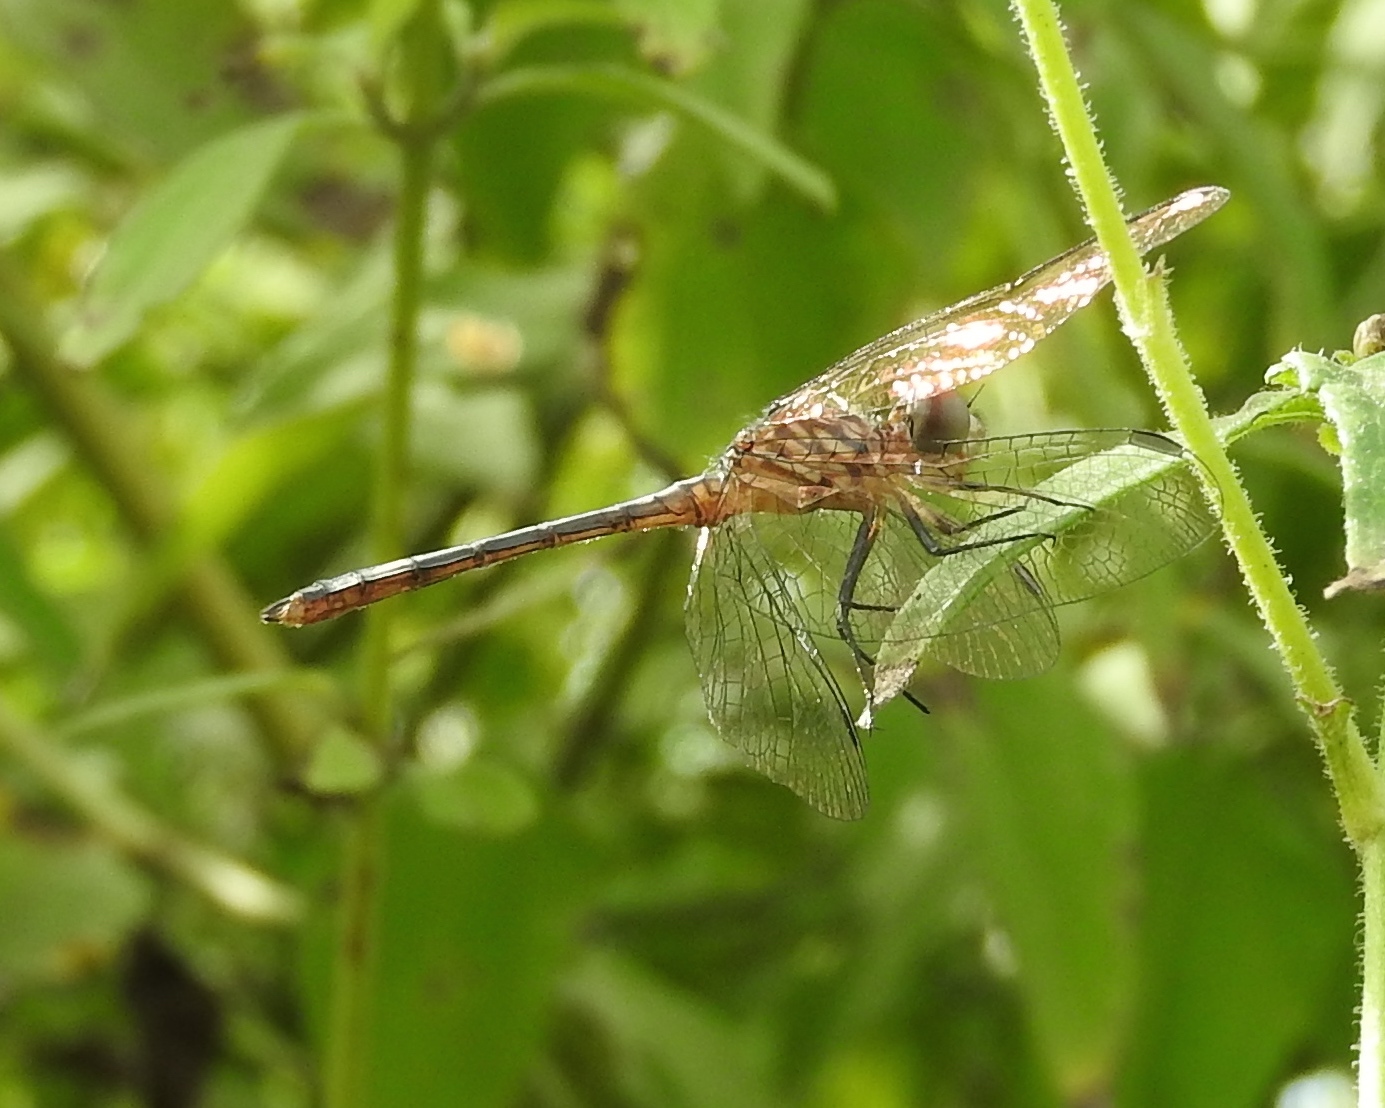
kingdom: Animalia
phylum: Arthropoda
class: Insecta
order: Odonata
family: Libellulidae
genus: Micrathyria
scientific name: Micrathyria aequalis
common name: Spot-tailed dasher
